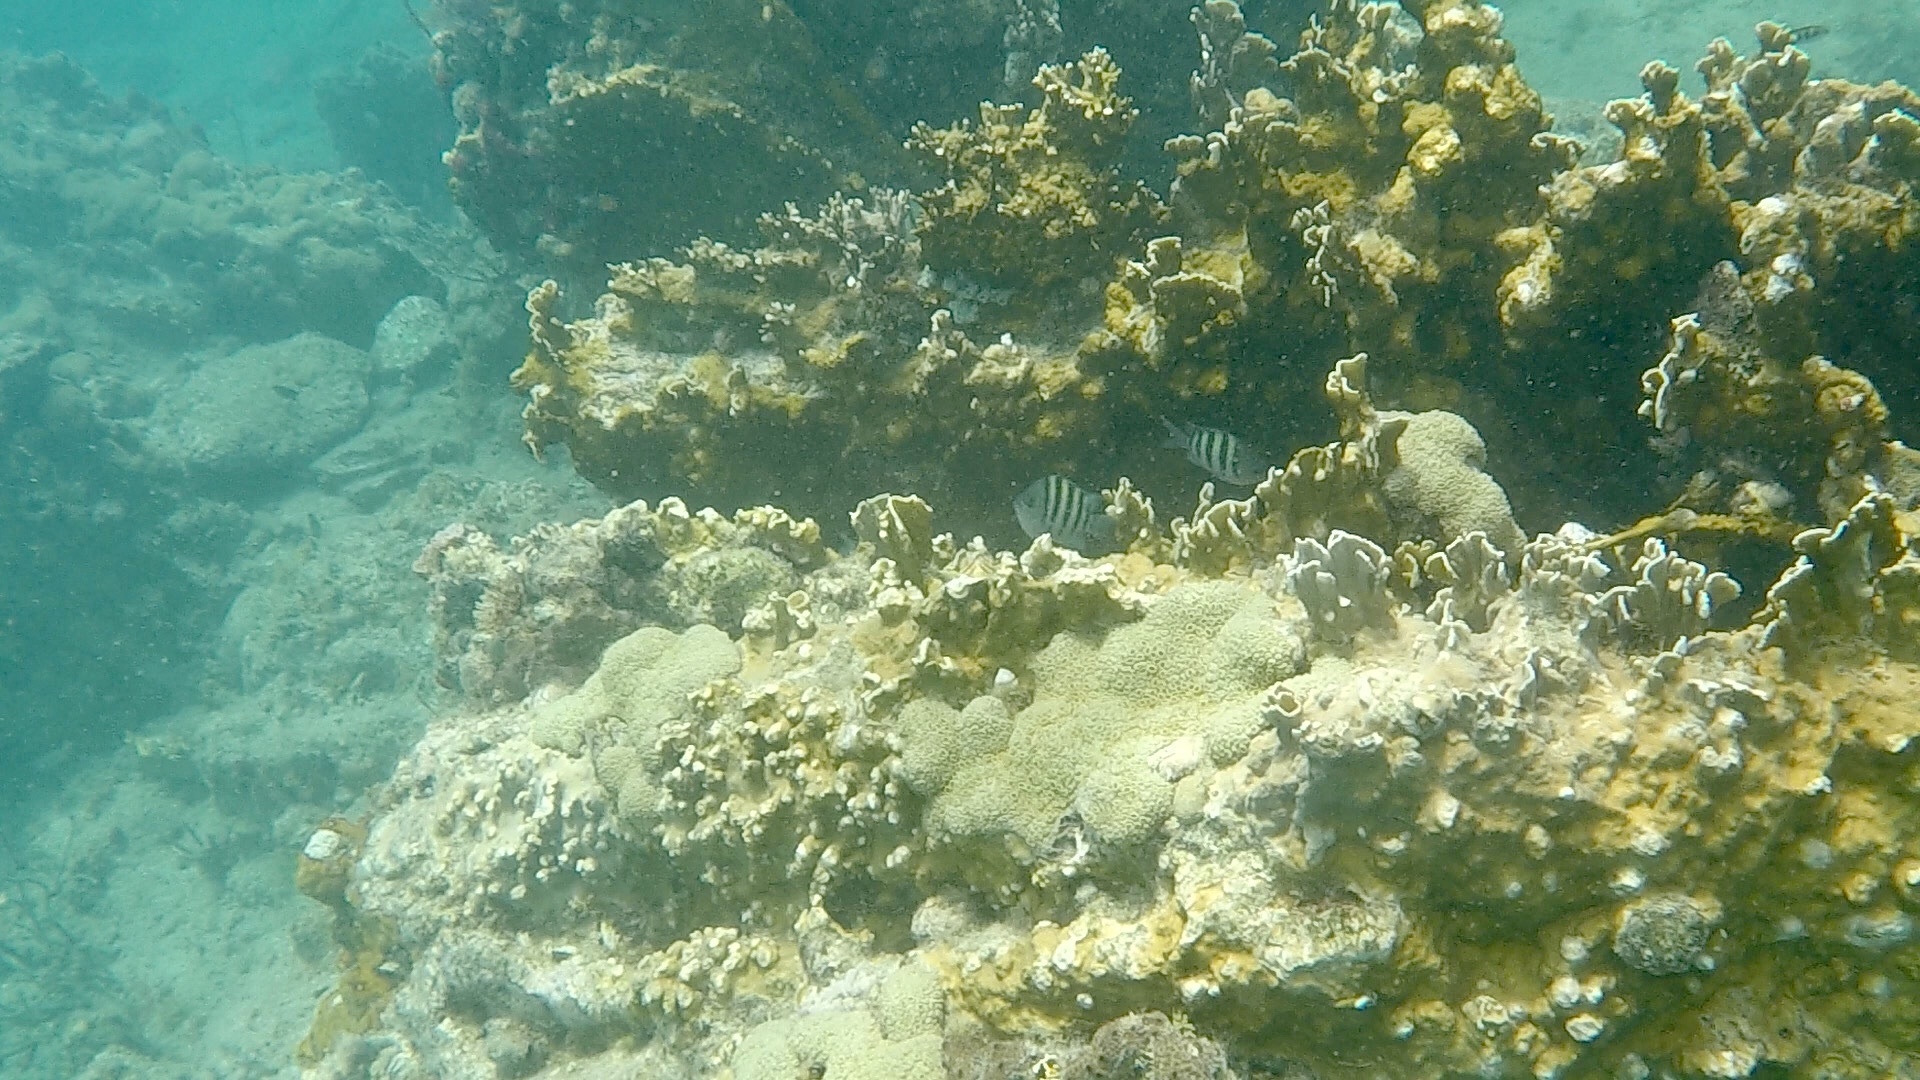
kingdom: Animalia
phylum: Cnidaria
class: Hydrozoa
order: Anthoathecata
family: Milleporidae
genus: Millepora
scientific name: Millepora complanata
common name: Bladed fire coral
